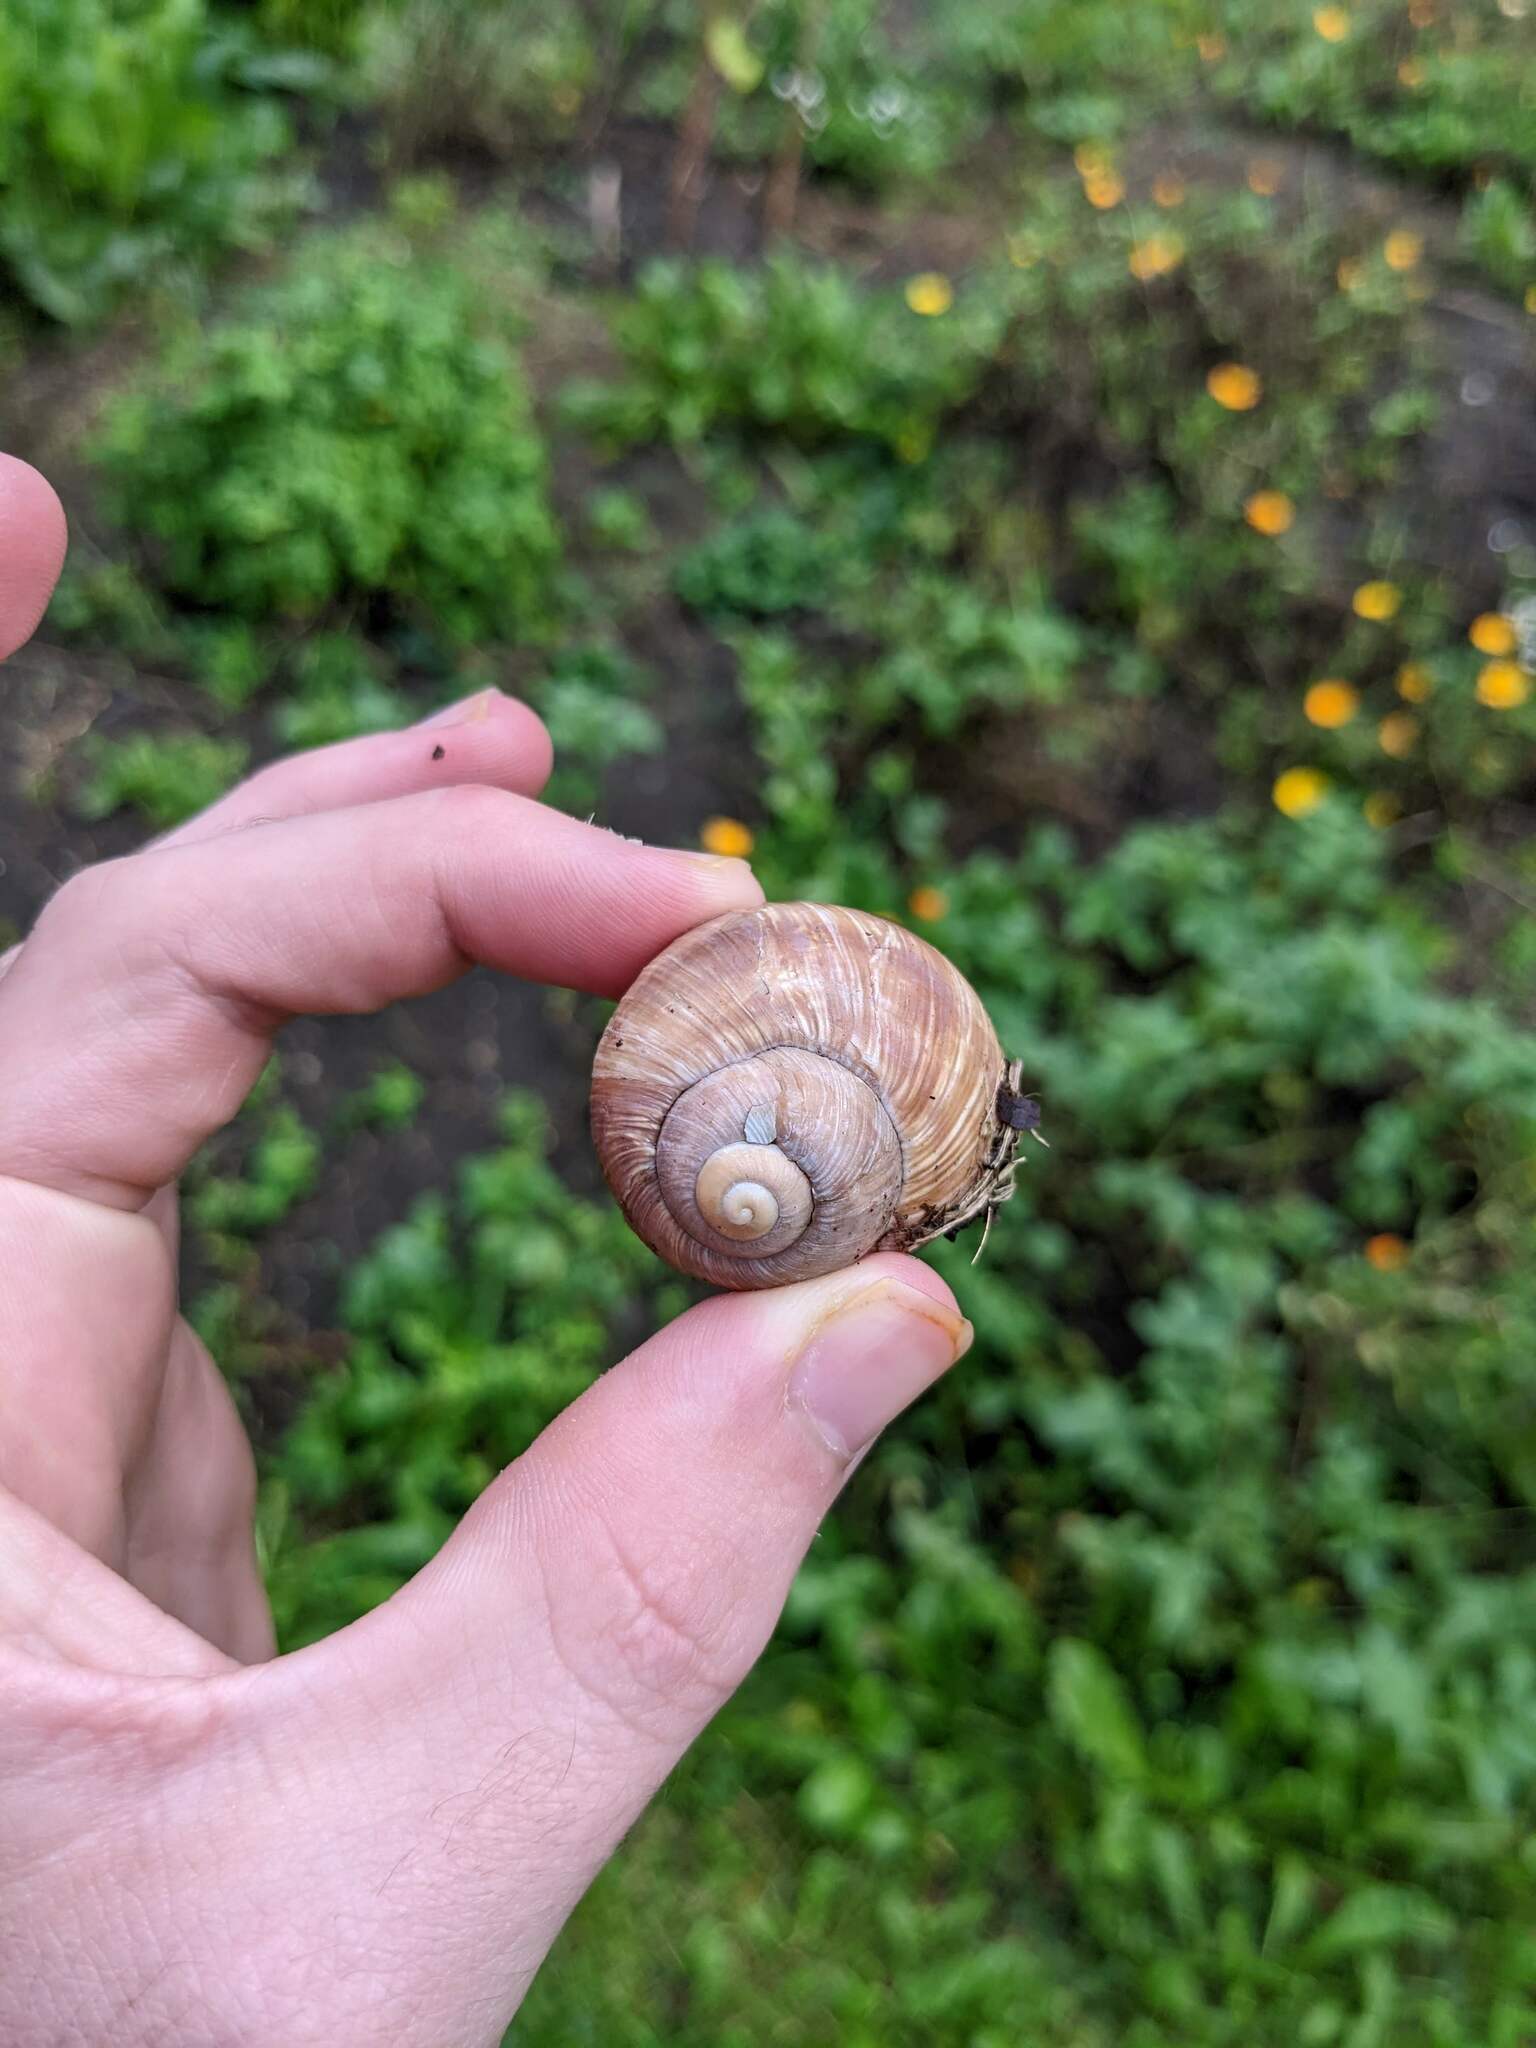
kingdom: Animalia
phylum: Mollusca
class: Gastropoda
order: Stylommatophora
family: Helicidae
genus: Helix
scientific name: Helix pomatia
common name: Roman snail
